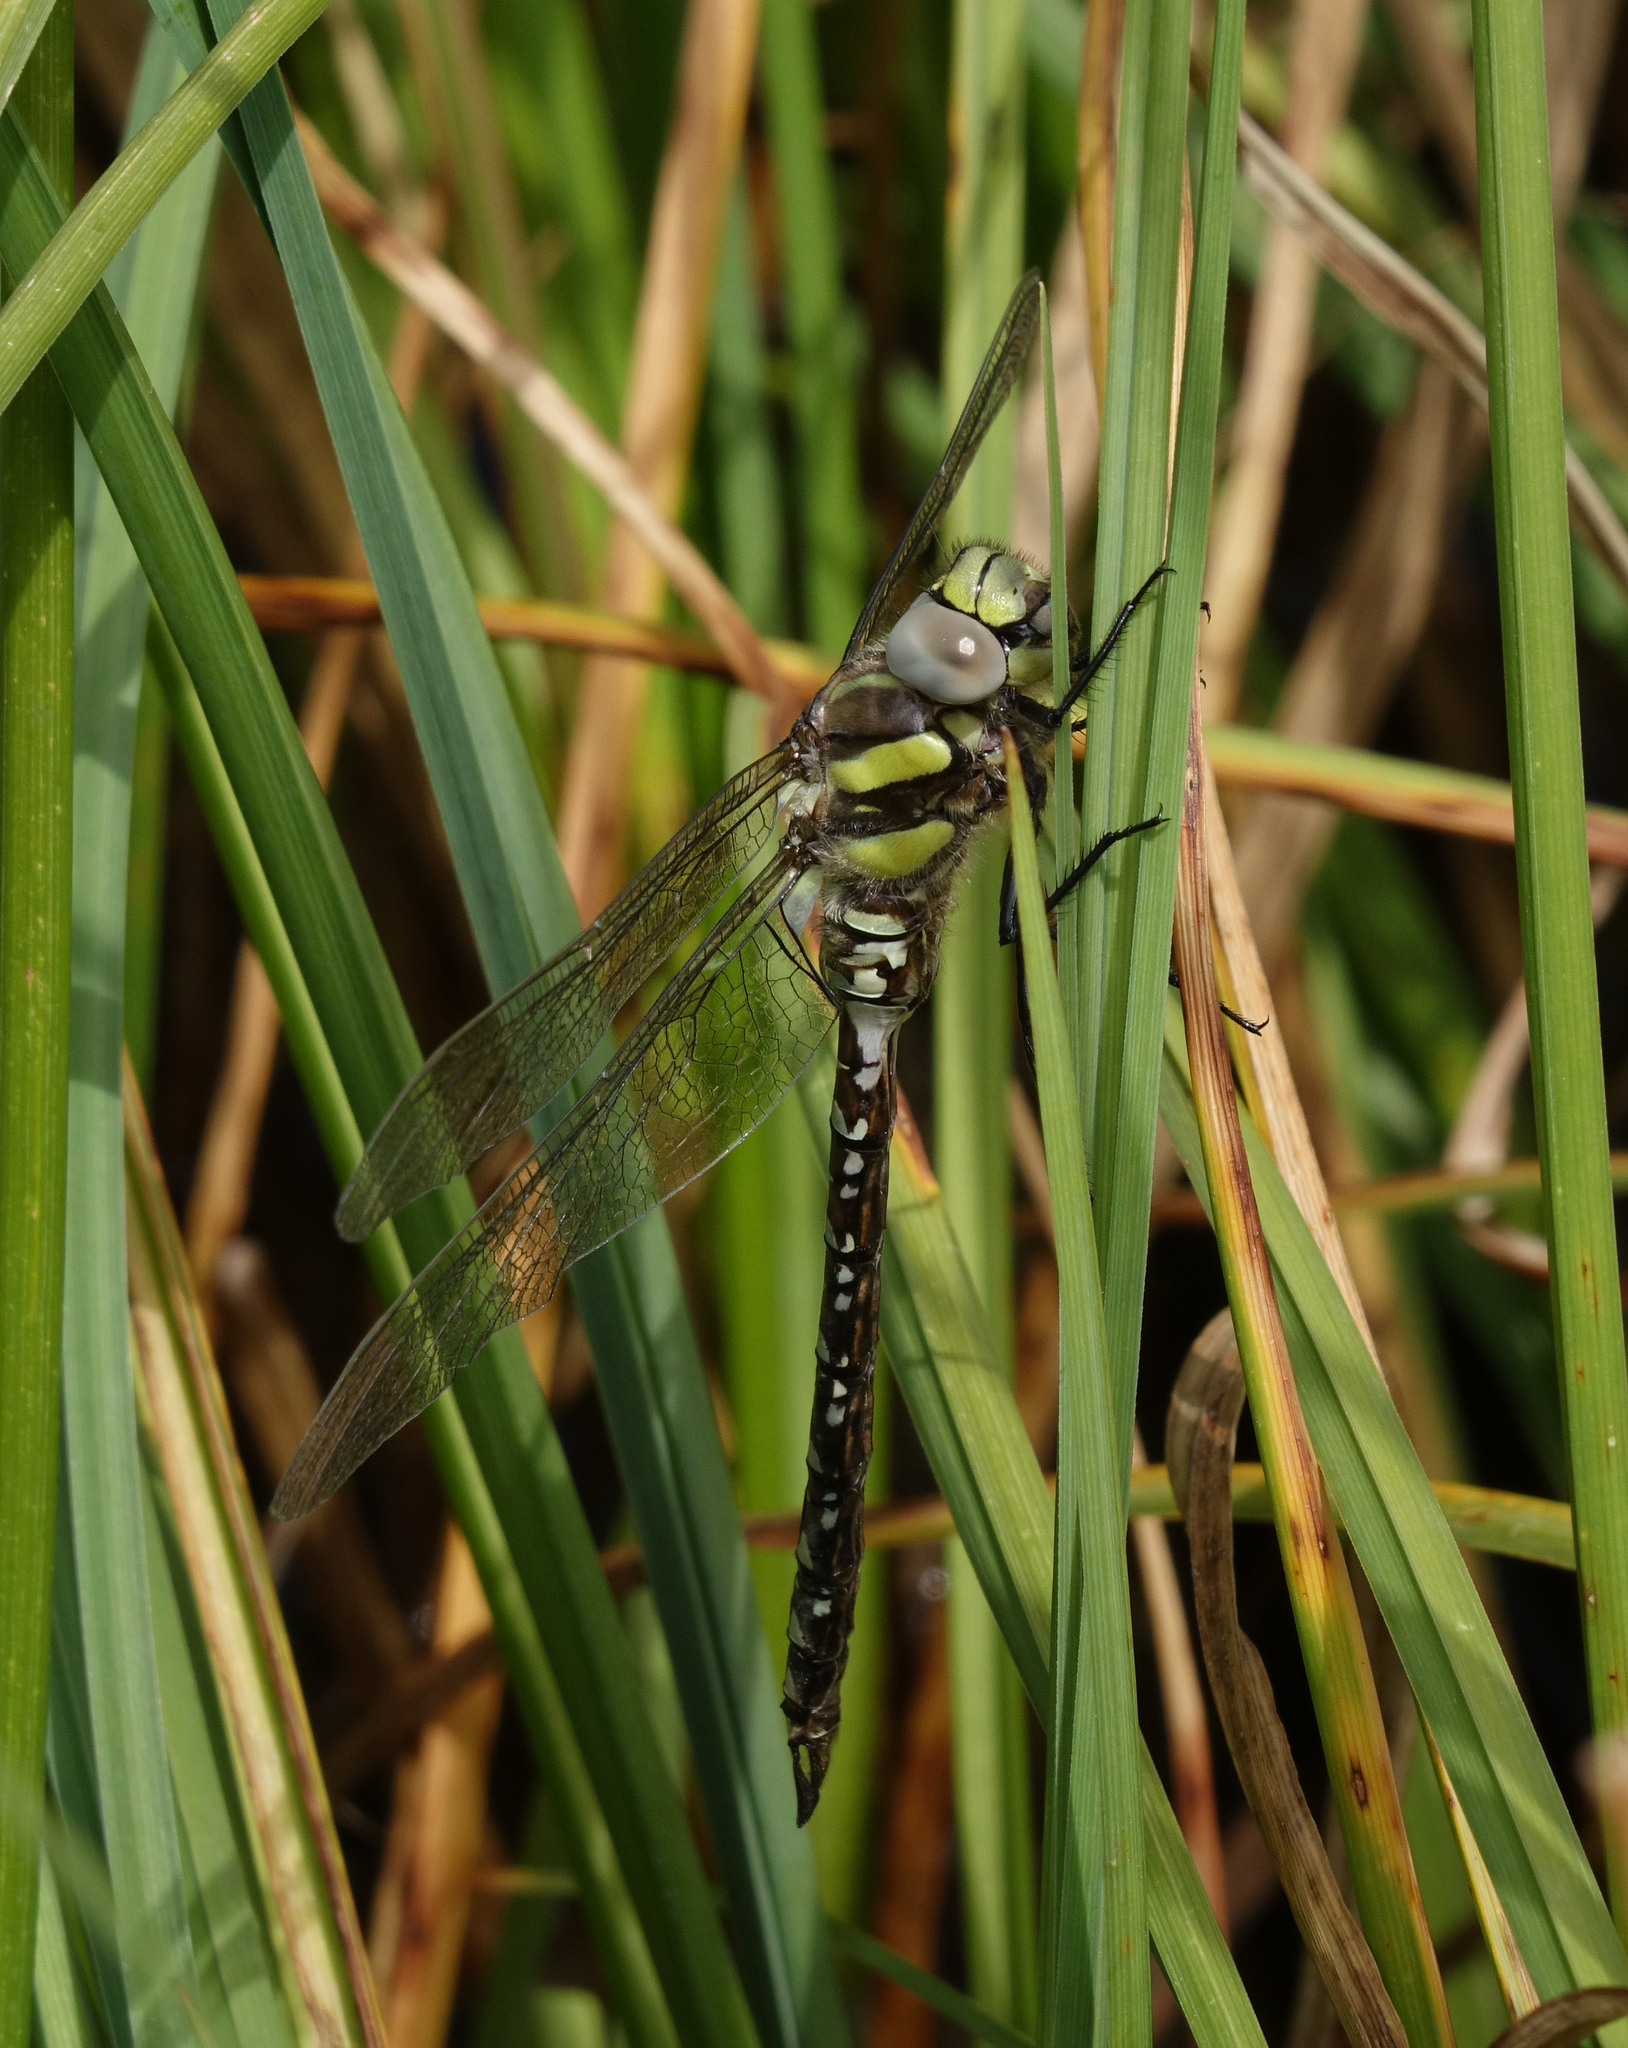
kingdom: Animalia
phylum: Arthropoda
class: Insecta
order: Odonata
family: Aeshnidae
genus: Aeshna
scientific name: Aeshna juncea
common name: Moorland hawker
